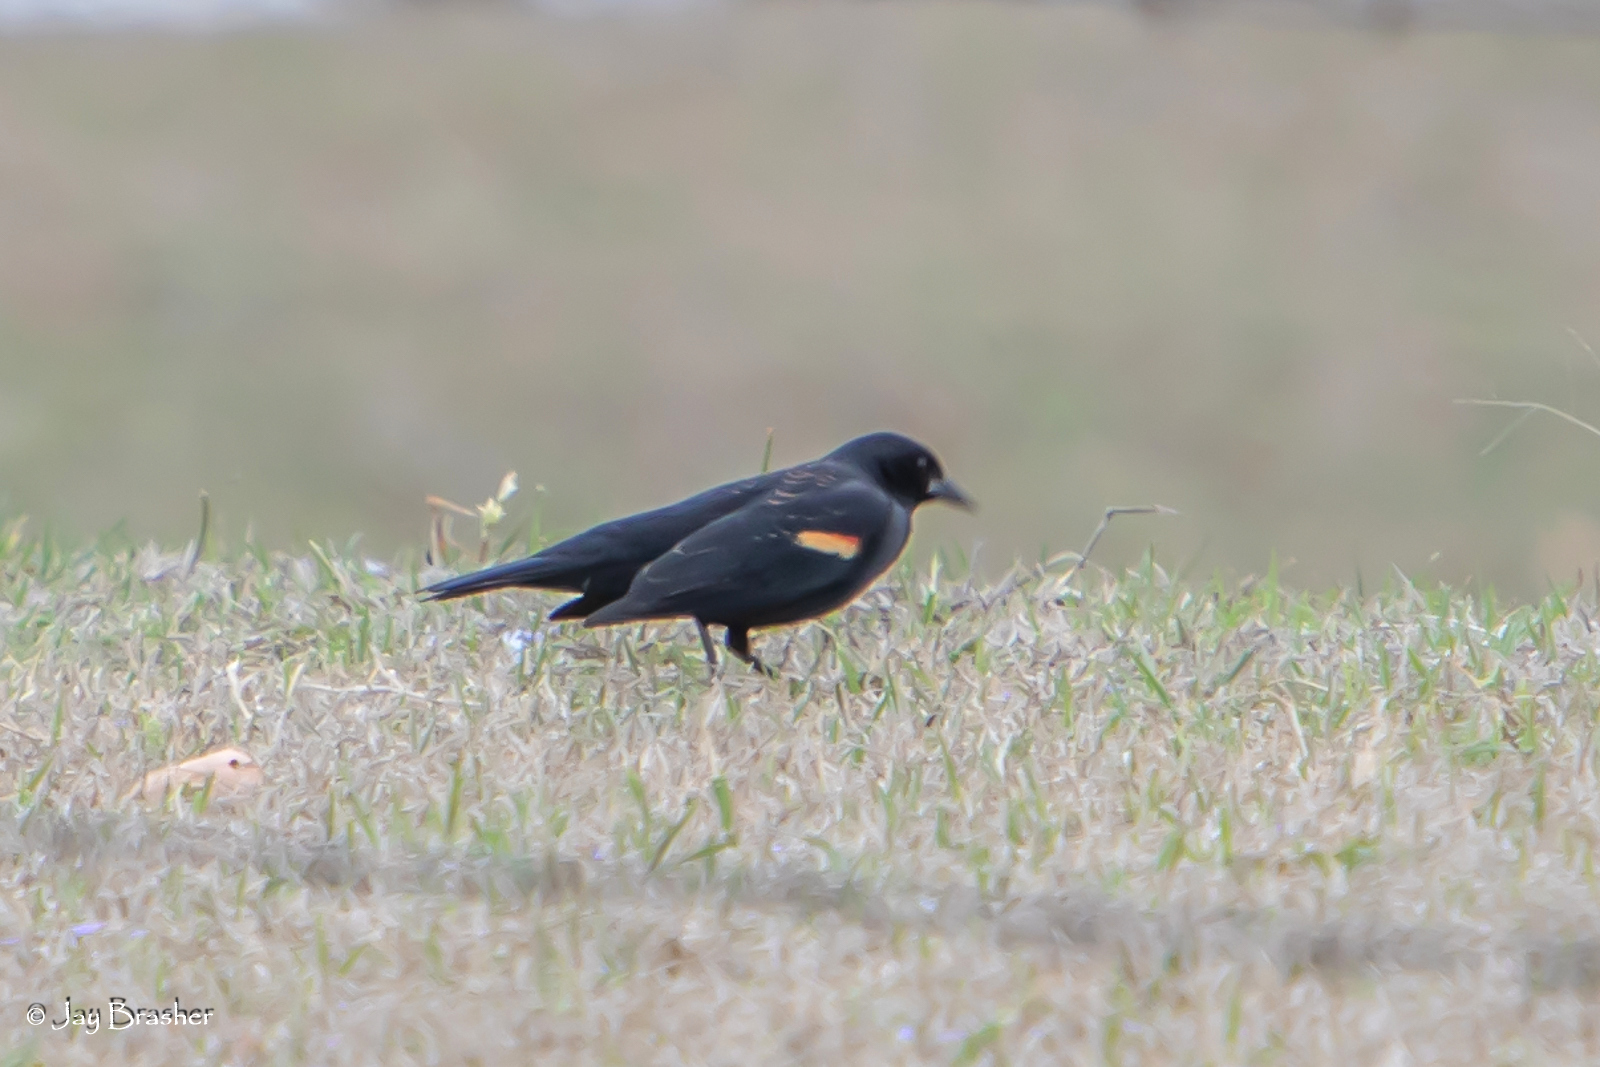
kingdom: Animalia
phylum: Chordata
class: Aves
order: Passeriformes
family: Icteridae
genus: Agelaius
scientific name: Agelaius phoeniceus
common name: Red-winged blackbird
